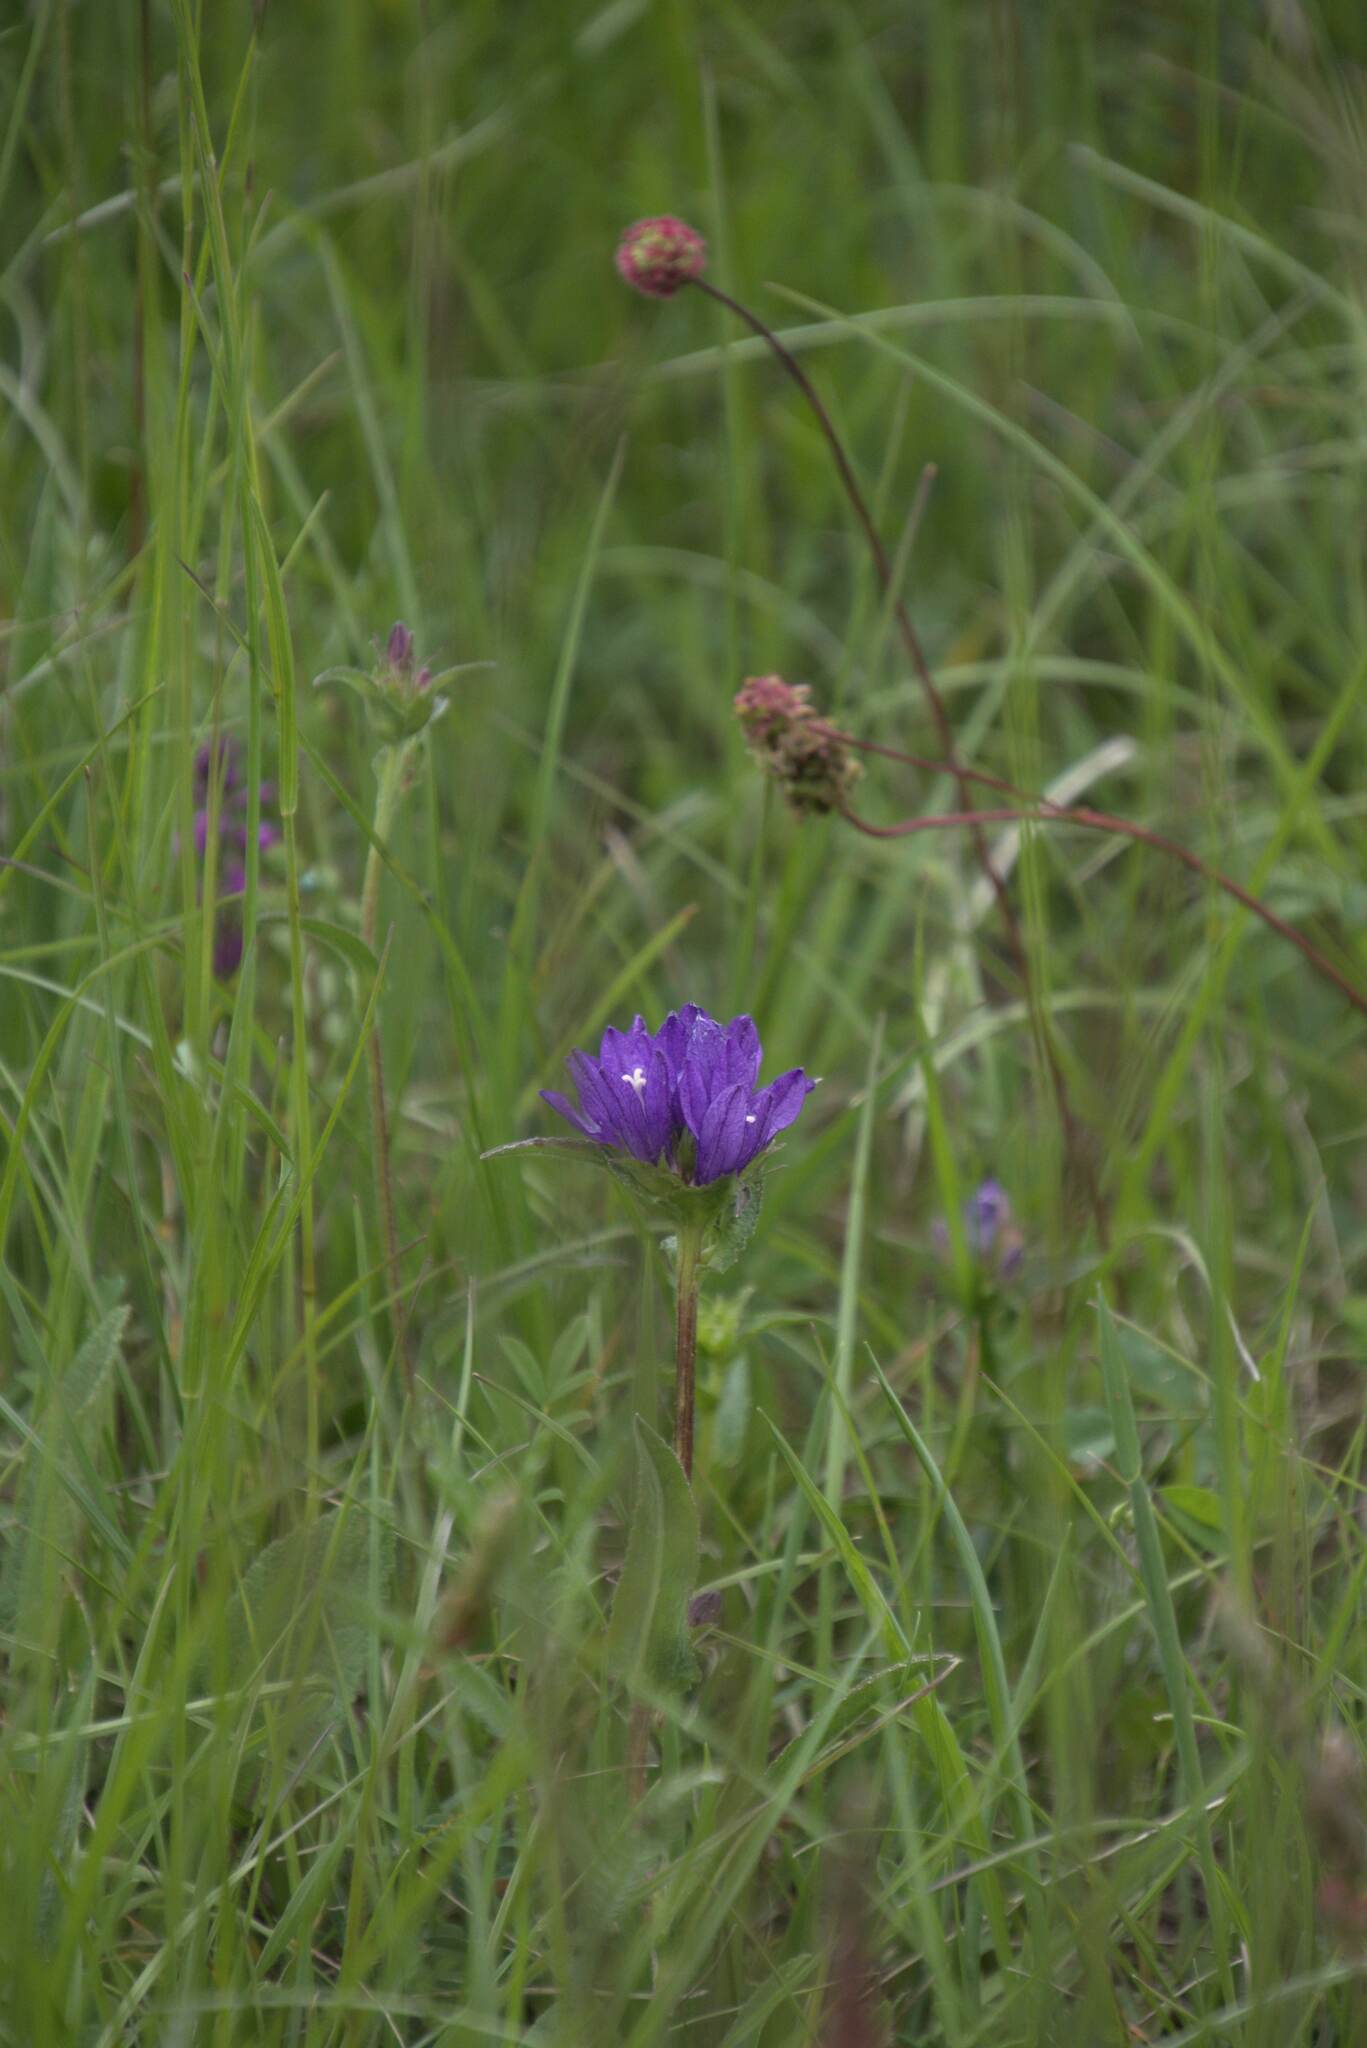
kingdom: Plantae
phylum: Tracheophyta
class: Magnoliopsida
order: Asterales
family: Campanulaceae
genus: Campanula
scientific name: Campanula glomerata
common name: Clustered bellflower
